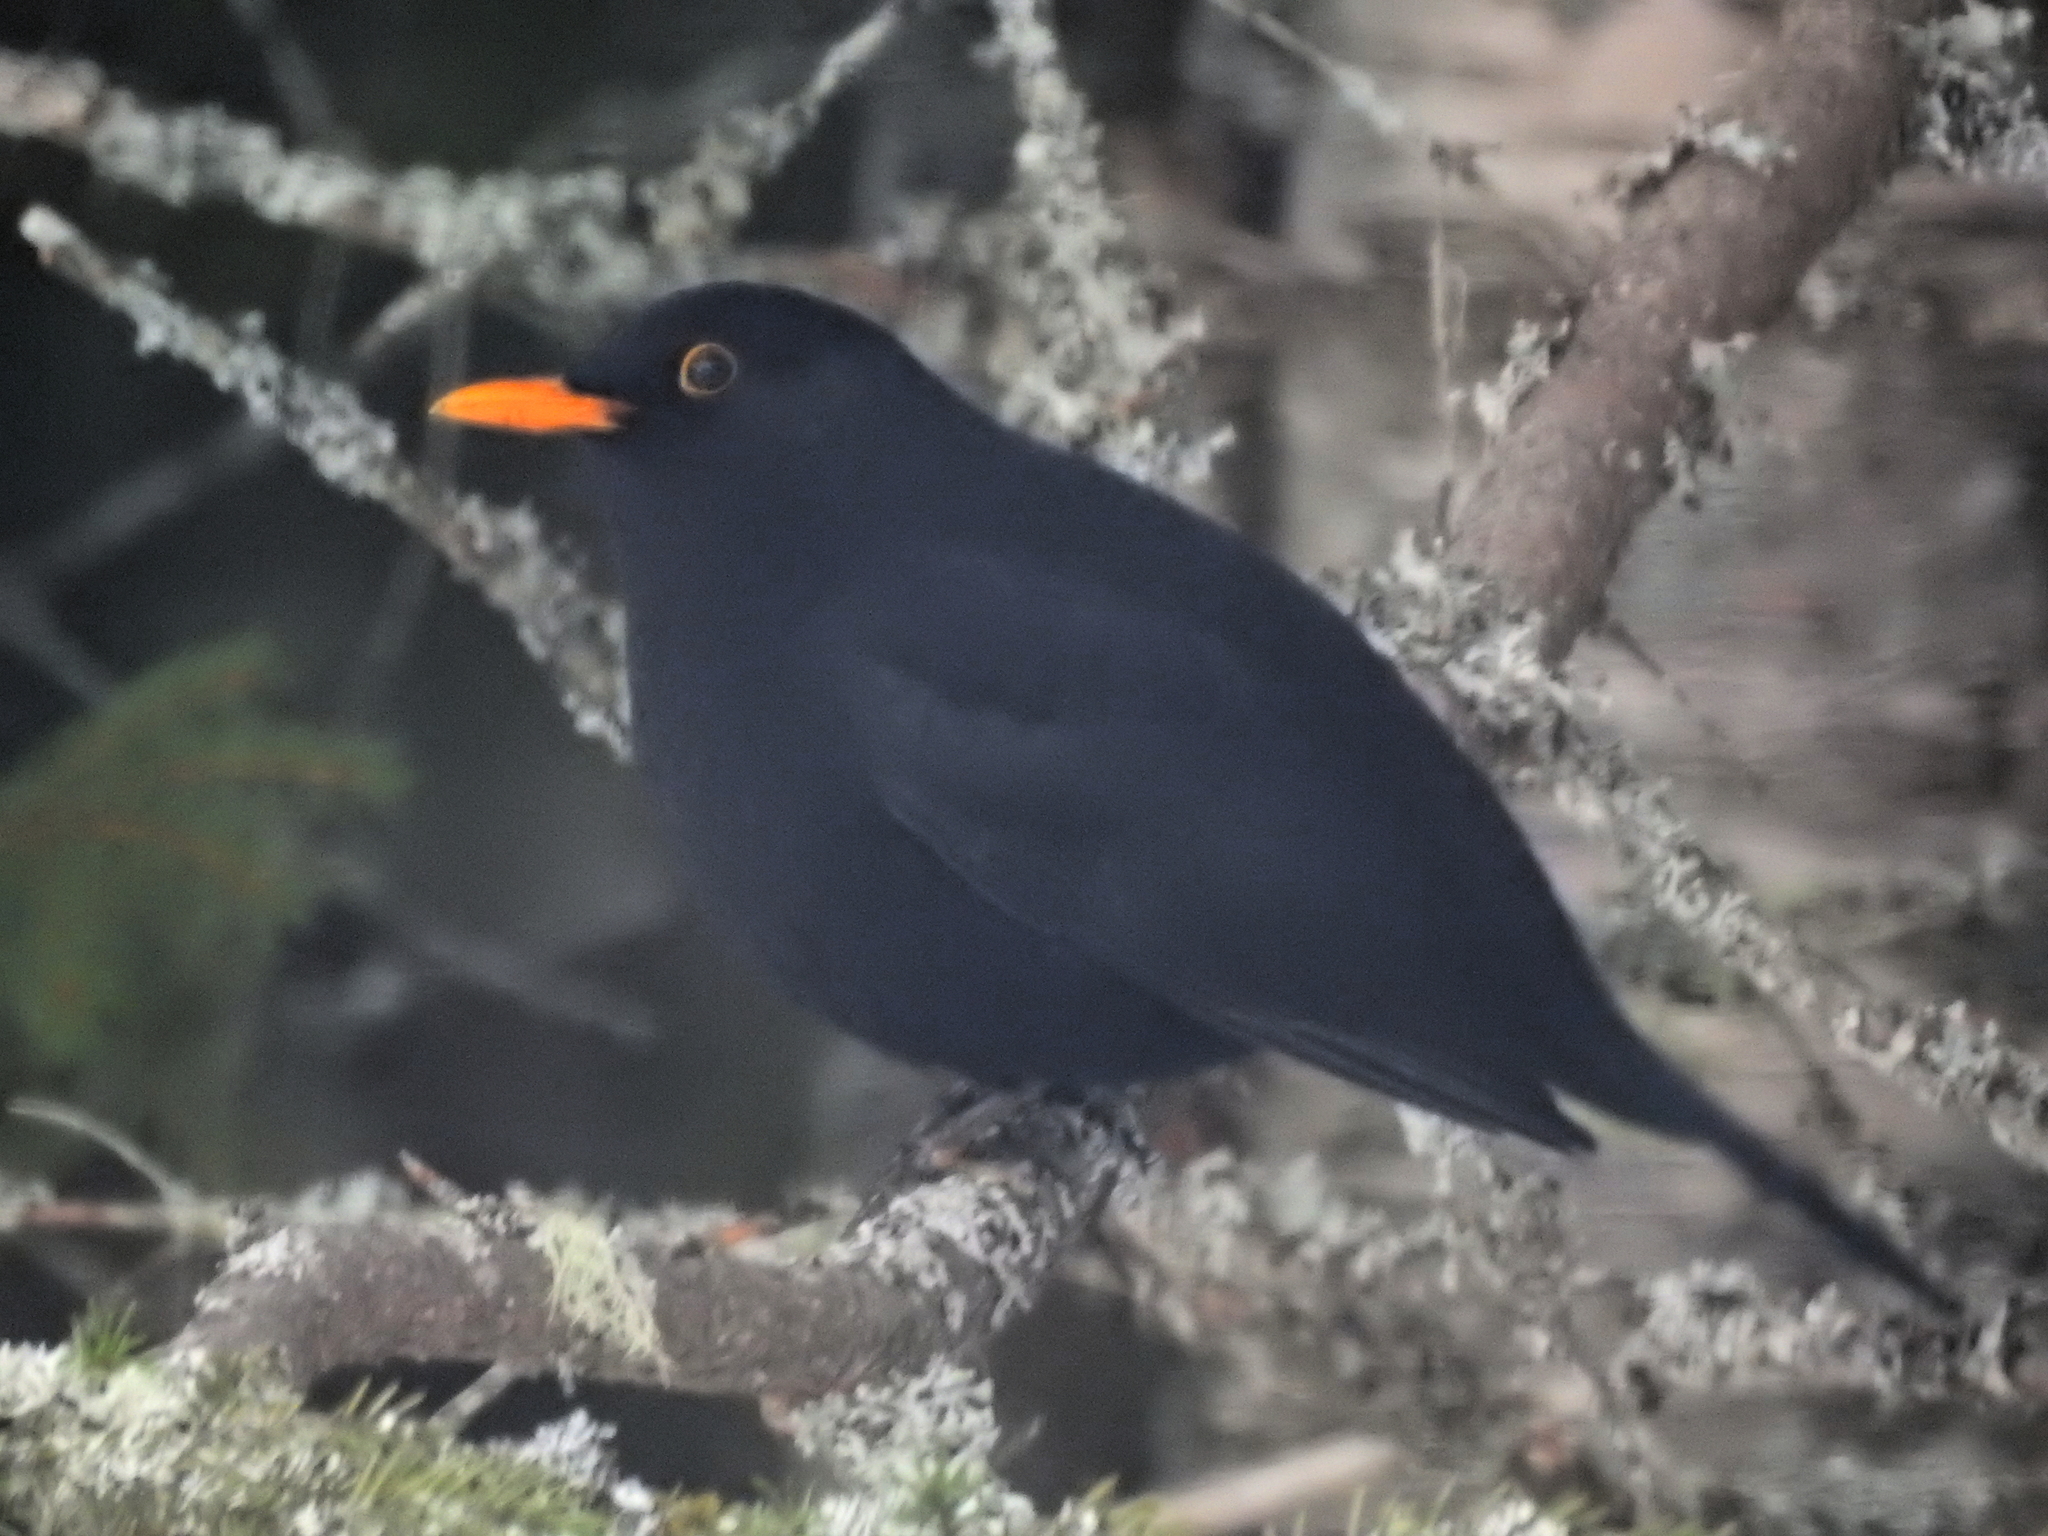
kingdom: Animalia
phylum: Chordata
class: Aves
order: Passeriformes
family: Turdidae
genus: Turdus
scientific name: Turdus merula
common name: Common blackbird
